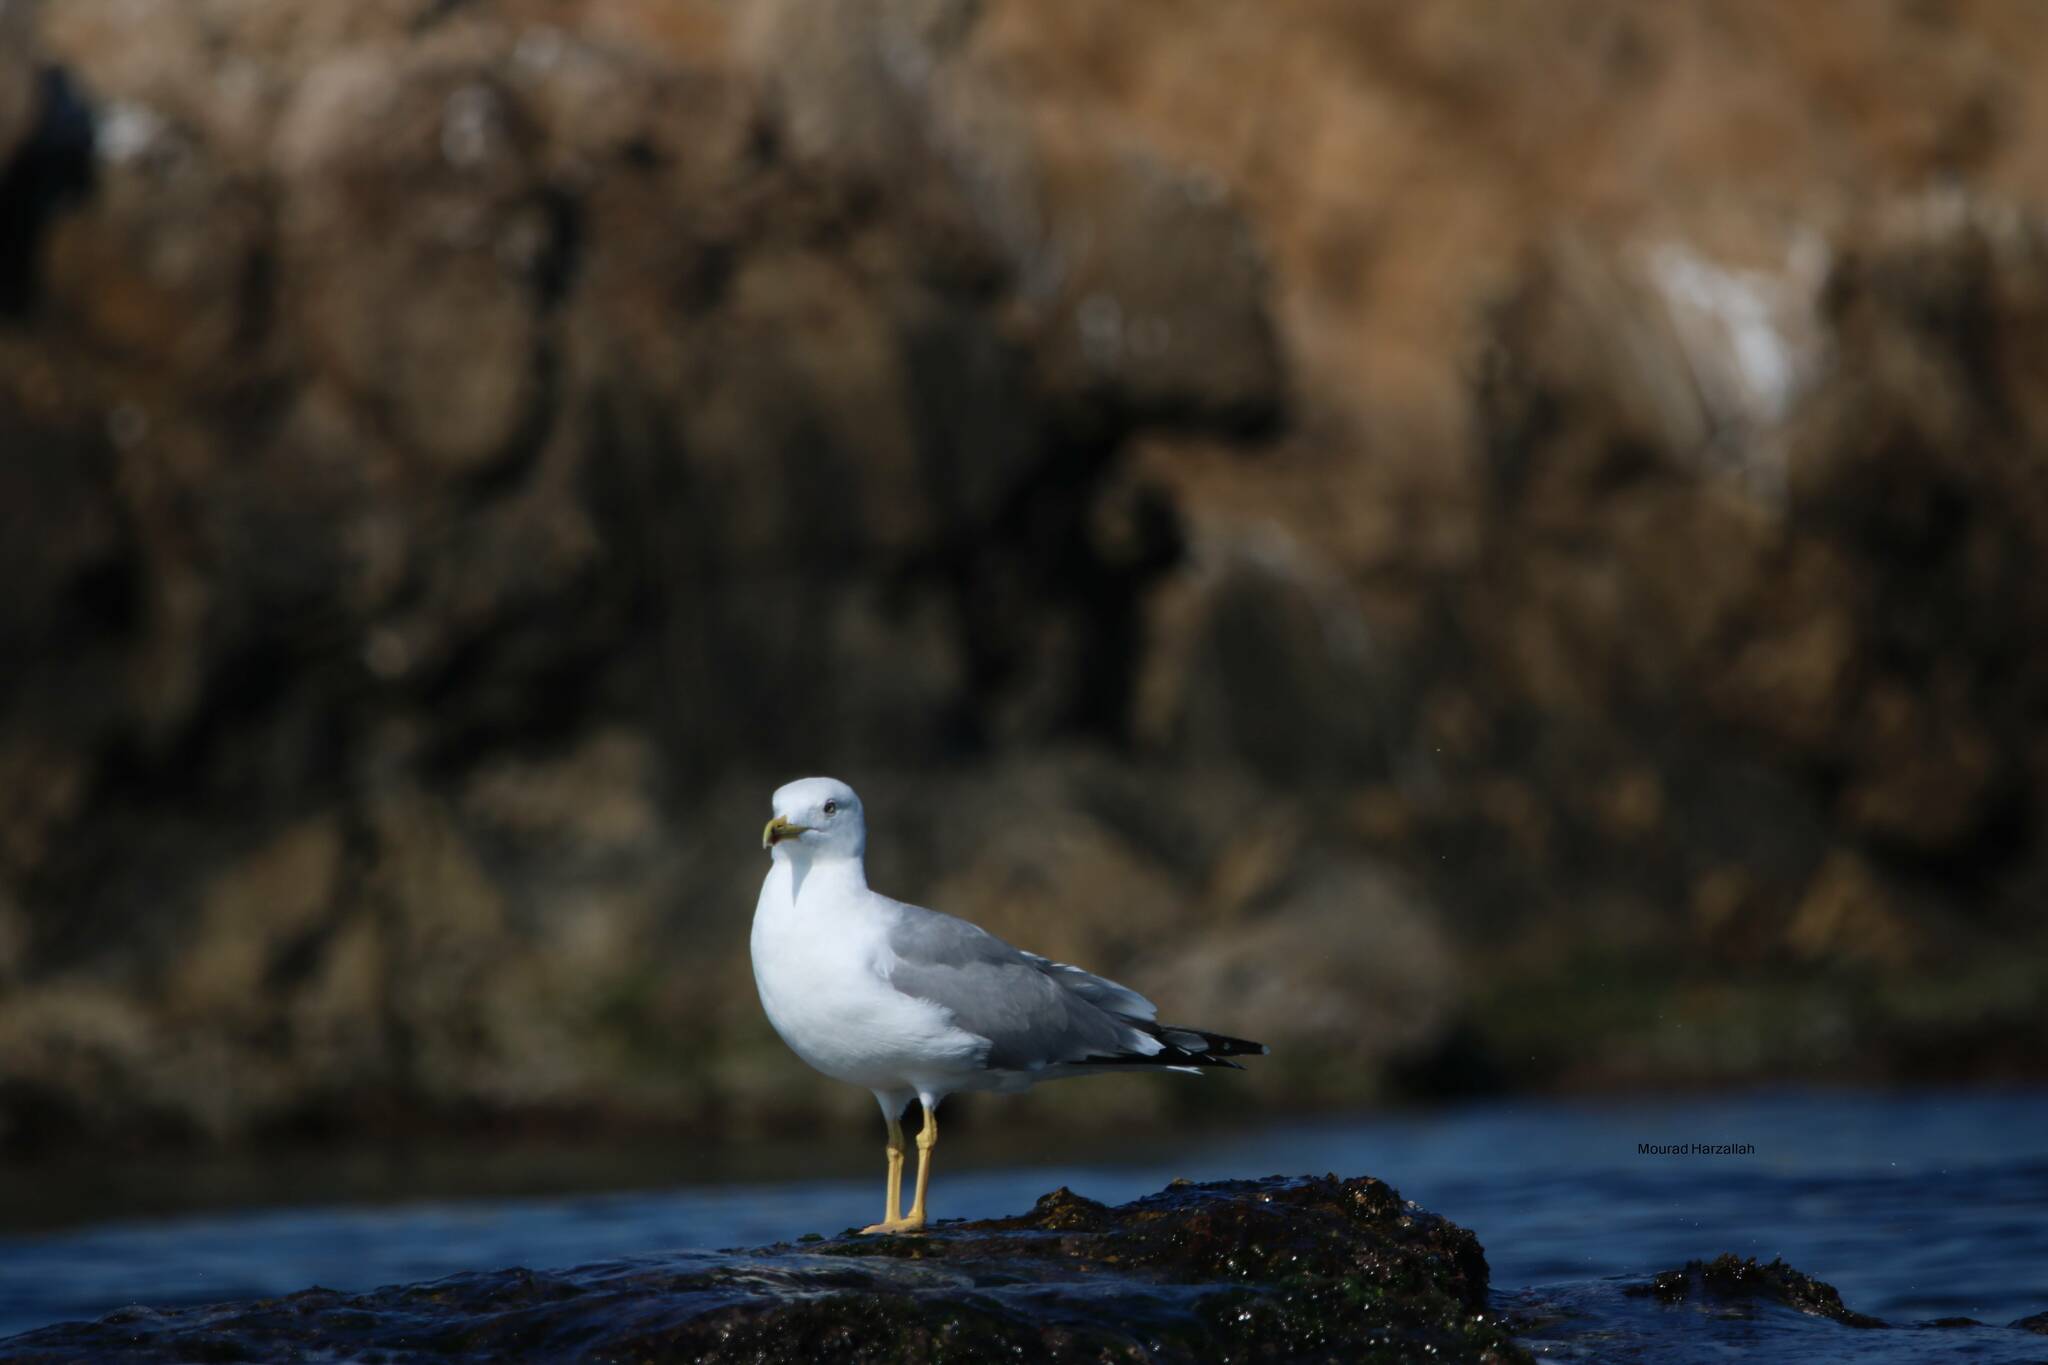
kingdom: Animalia
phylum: Chordata
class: Aves
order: Charadriiformes
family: Laridae
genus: Larus
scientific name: Larus michahellis
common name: Yellow-legged gull
